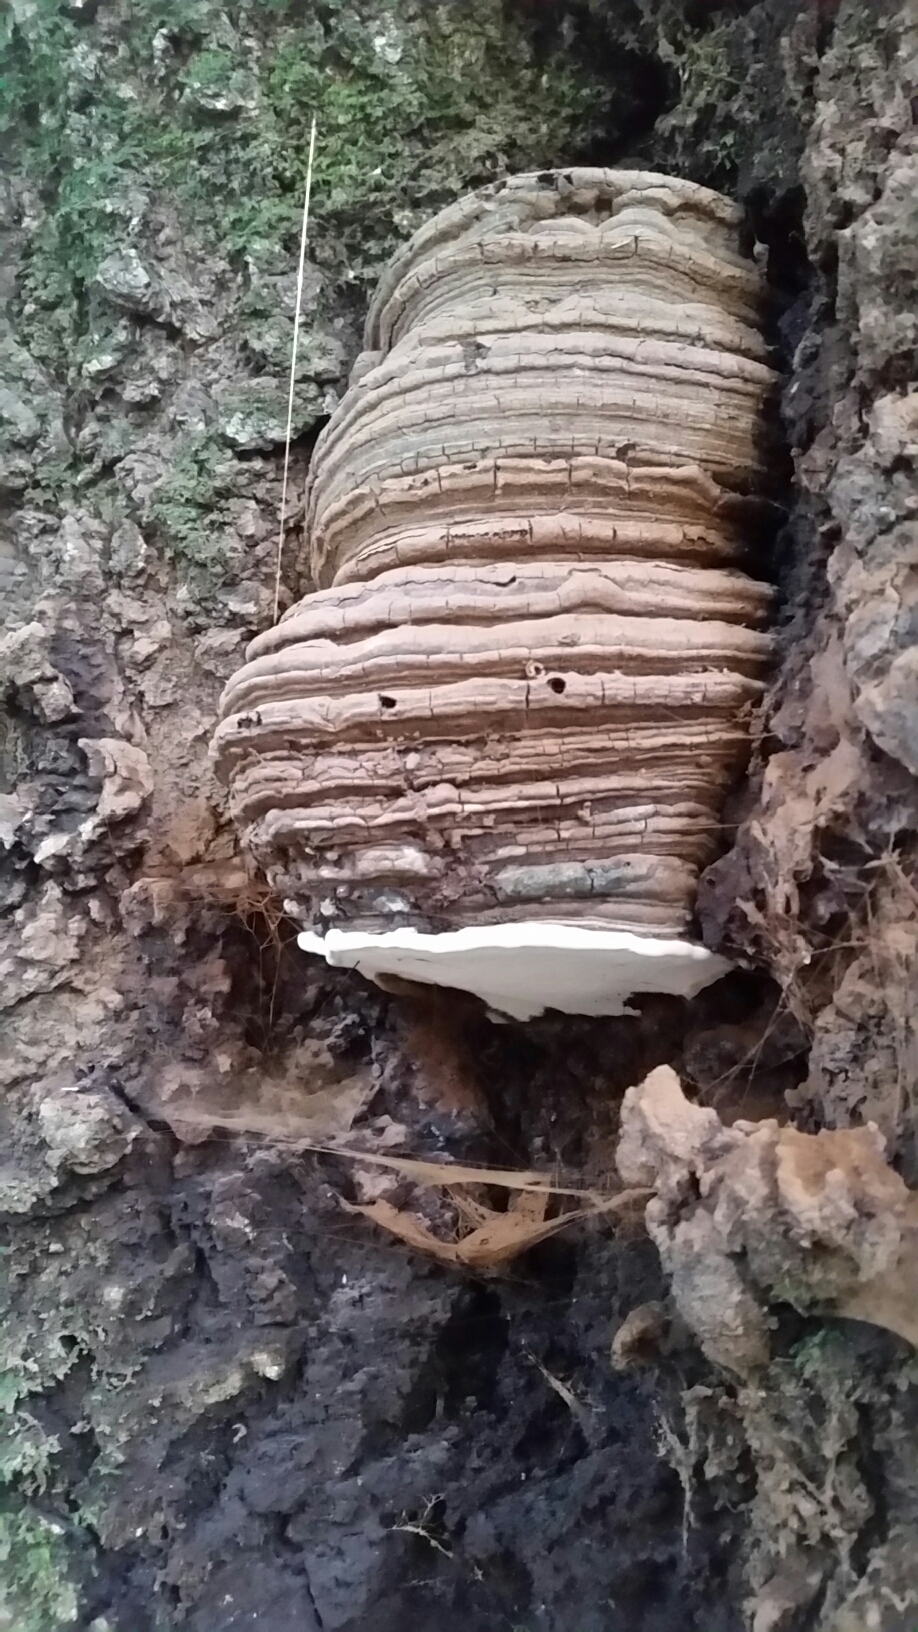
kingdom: Fungi
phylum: Basidiomycota
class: Agaricomycetes
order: Polyporales
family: Polyporaceae
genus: Ganoderma
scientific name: Ganoderma brownii
